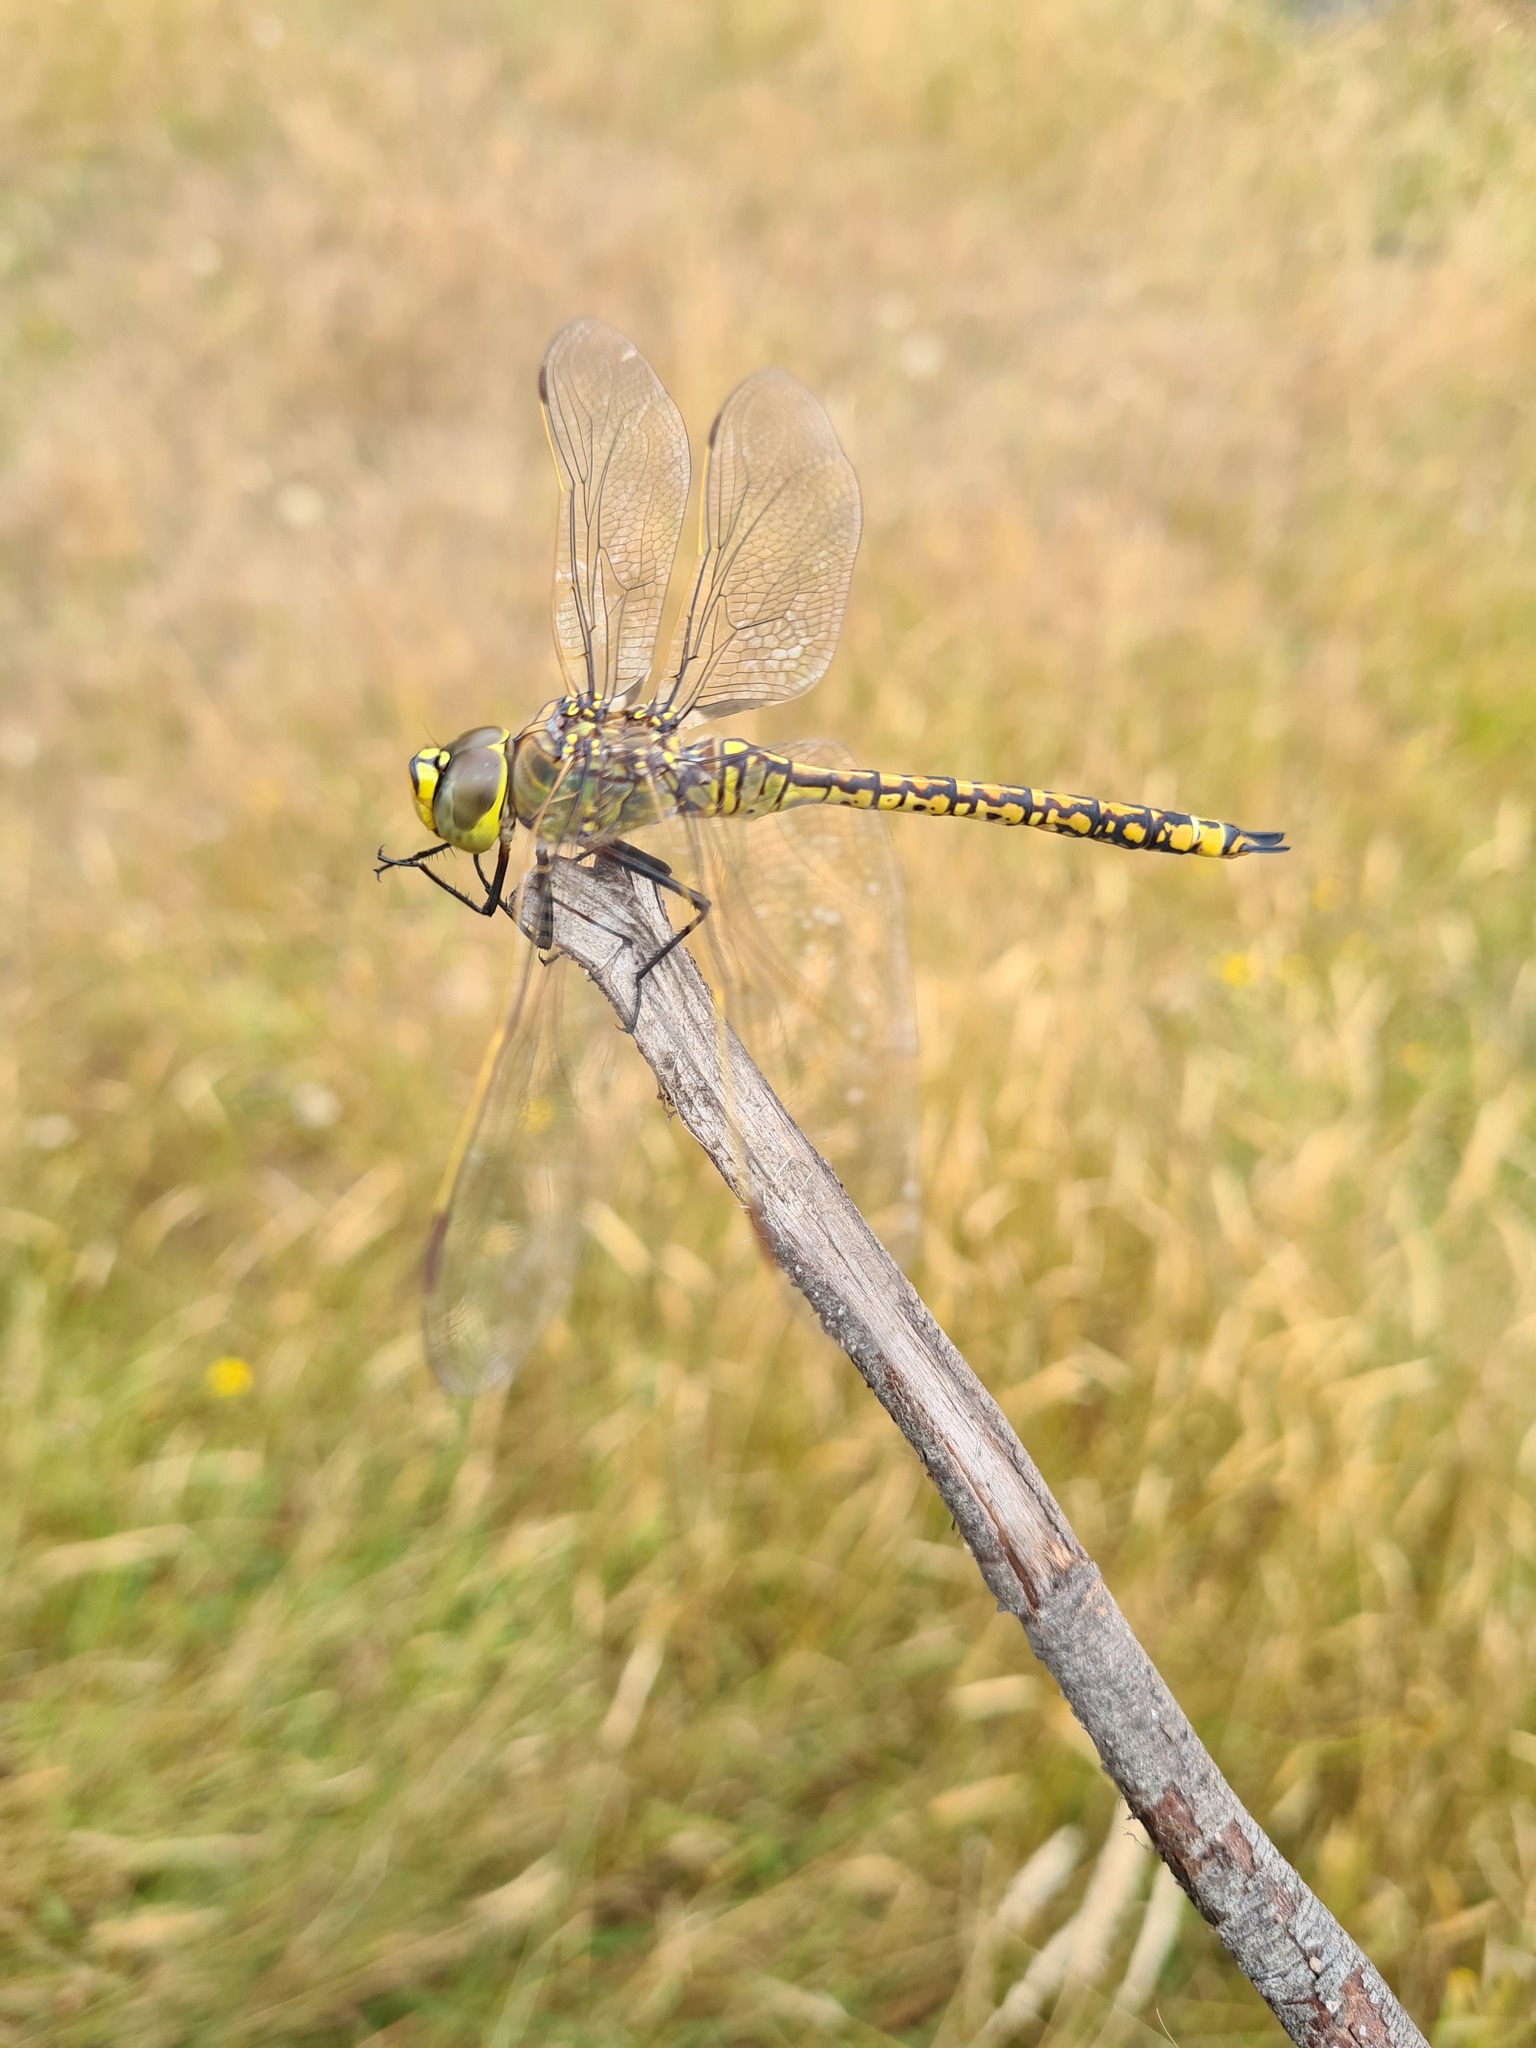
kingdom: Animalia
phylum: Arthropoda
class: Insecta
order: Odonata
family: Aeshnidae
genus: Anax
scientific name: Anax papuensis
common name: Australian emperor
